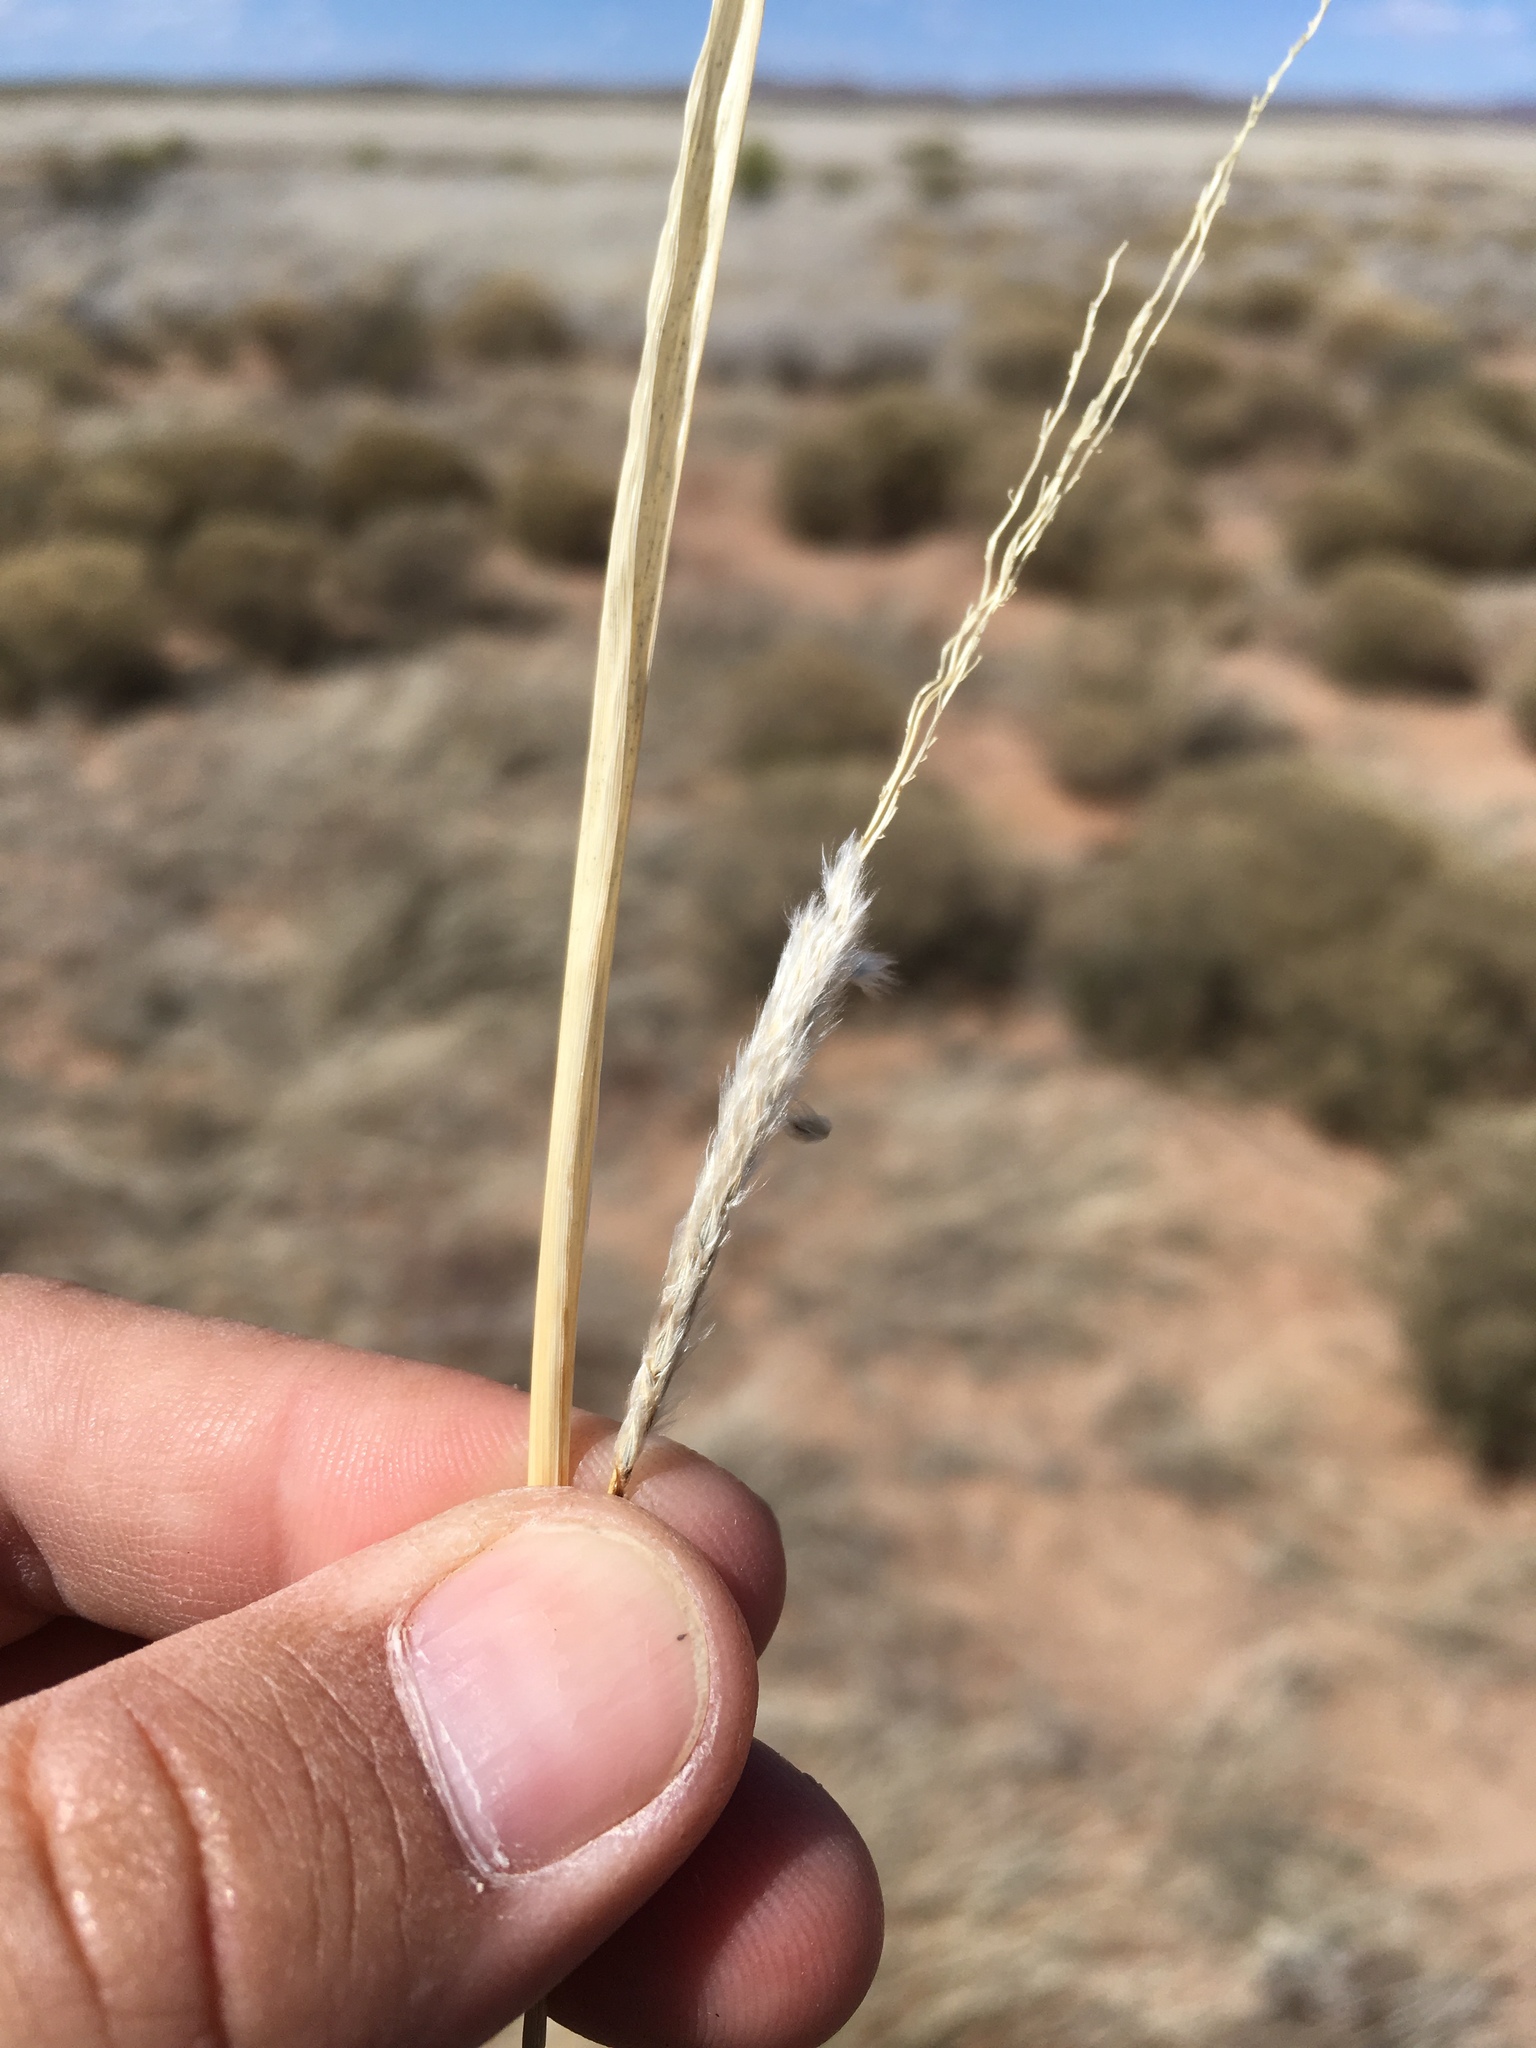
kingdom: Plantae
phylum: Tracheophyta
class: Liliopsida
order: Poales
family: Poaceae
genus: Digitaria
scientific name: Digitaria californica
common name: Arizona cottontop
